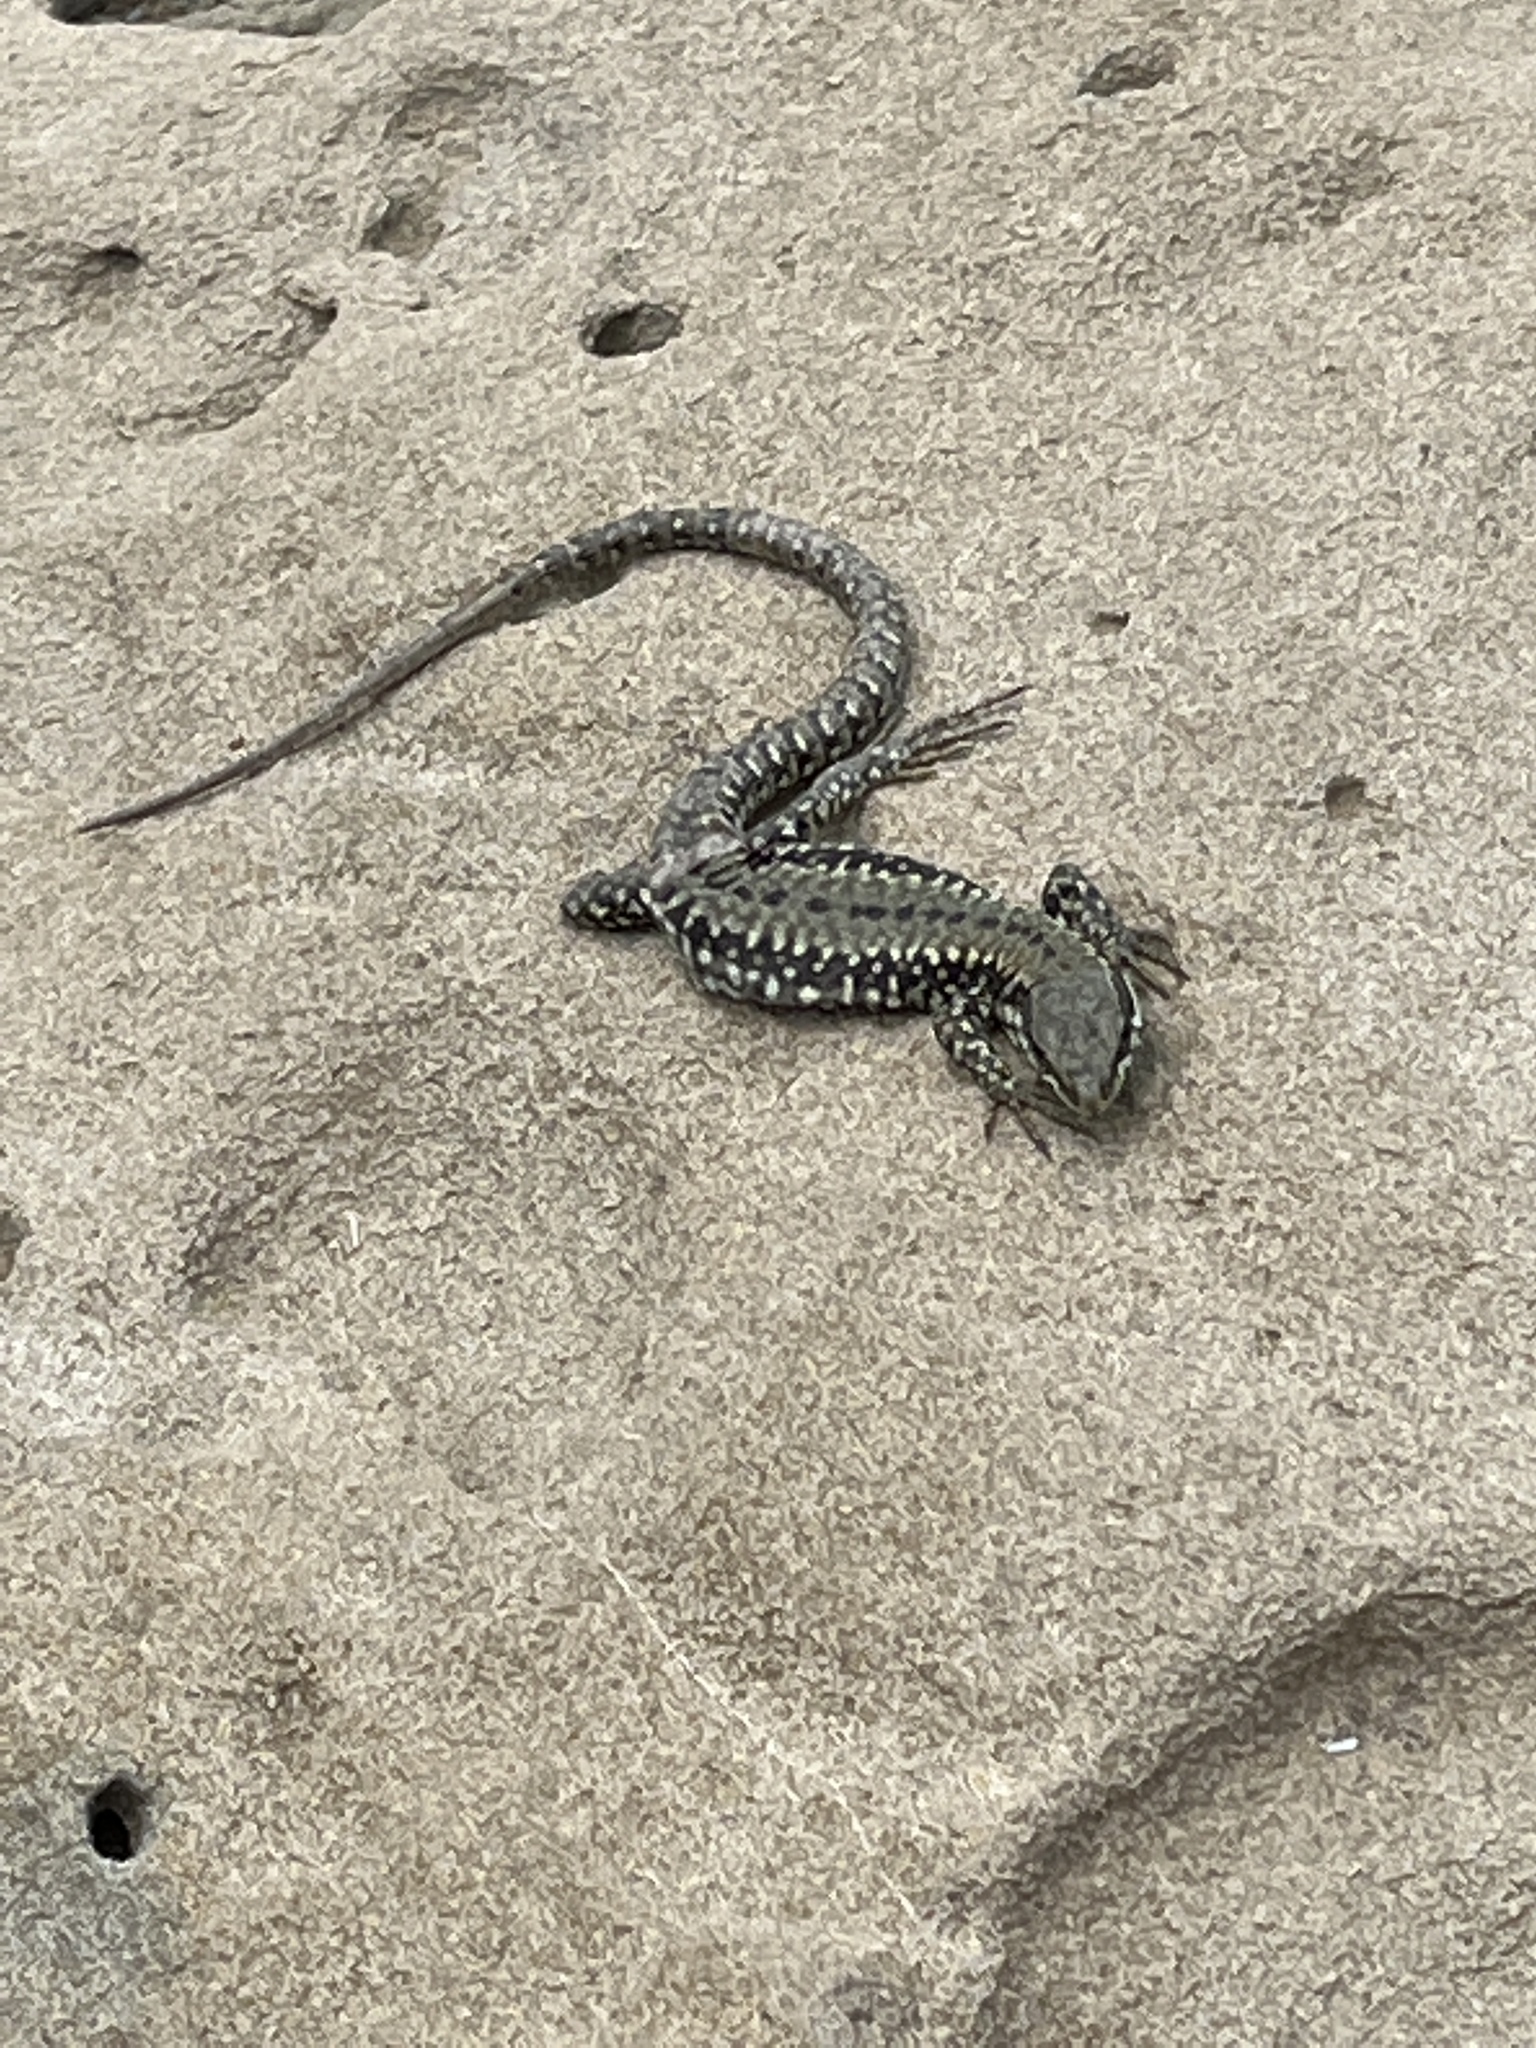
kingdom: Animalia
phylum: Chordata
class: Squamata
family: Lacertidae
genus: Podarcis
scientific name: Podarcis muralis
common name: Common wall lizard
